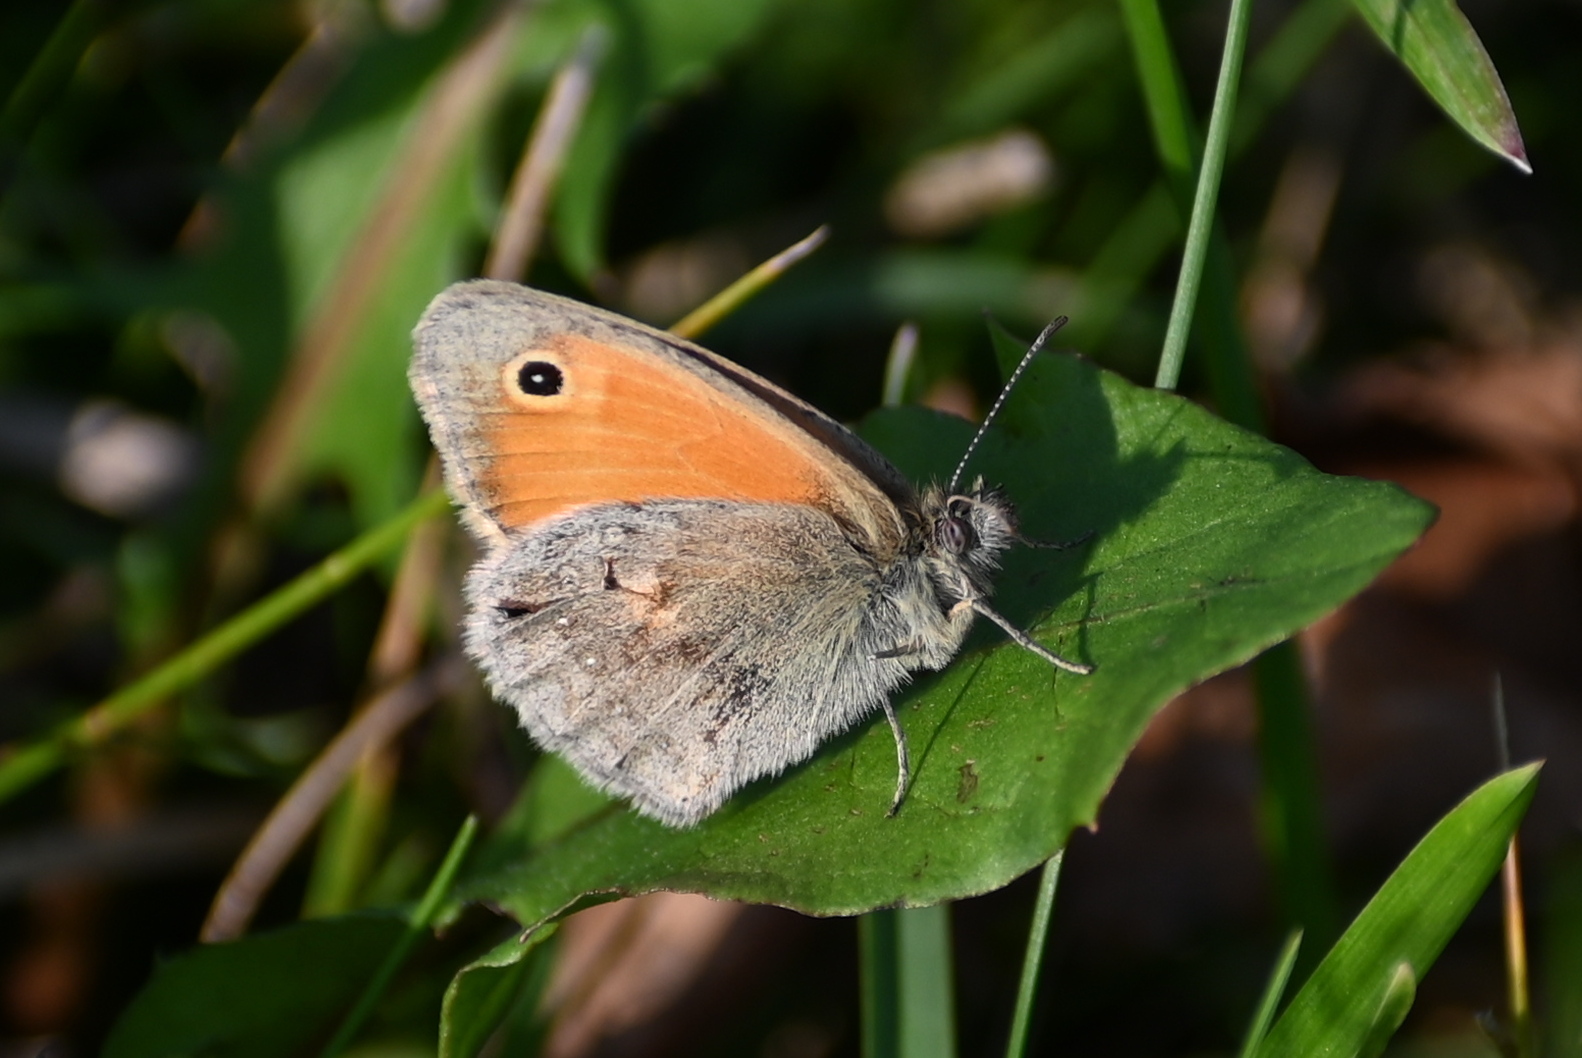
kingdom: Animalia
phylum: Arthropoda
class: Insecta
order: Lepidoptera
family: Nymphalidae
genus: Coenonympha
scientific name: Coenonympha pamphilus
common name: Small heath
